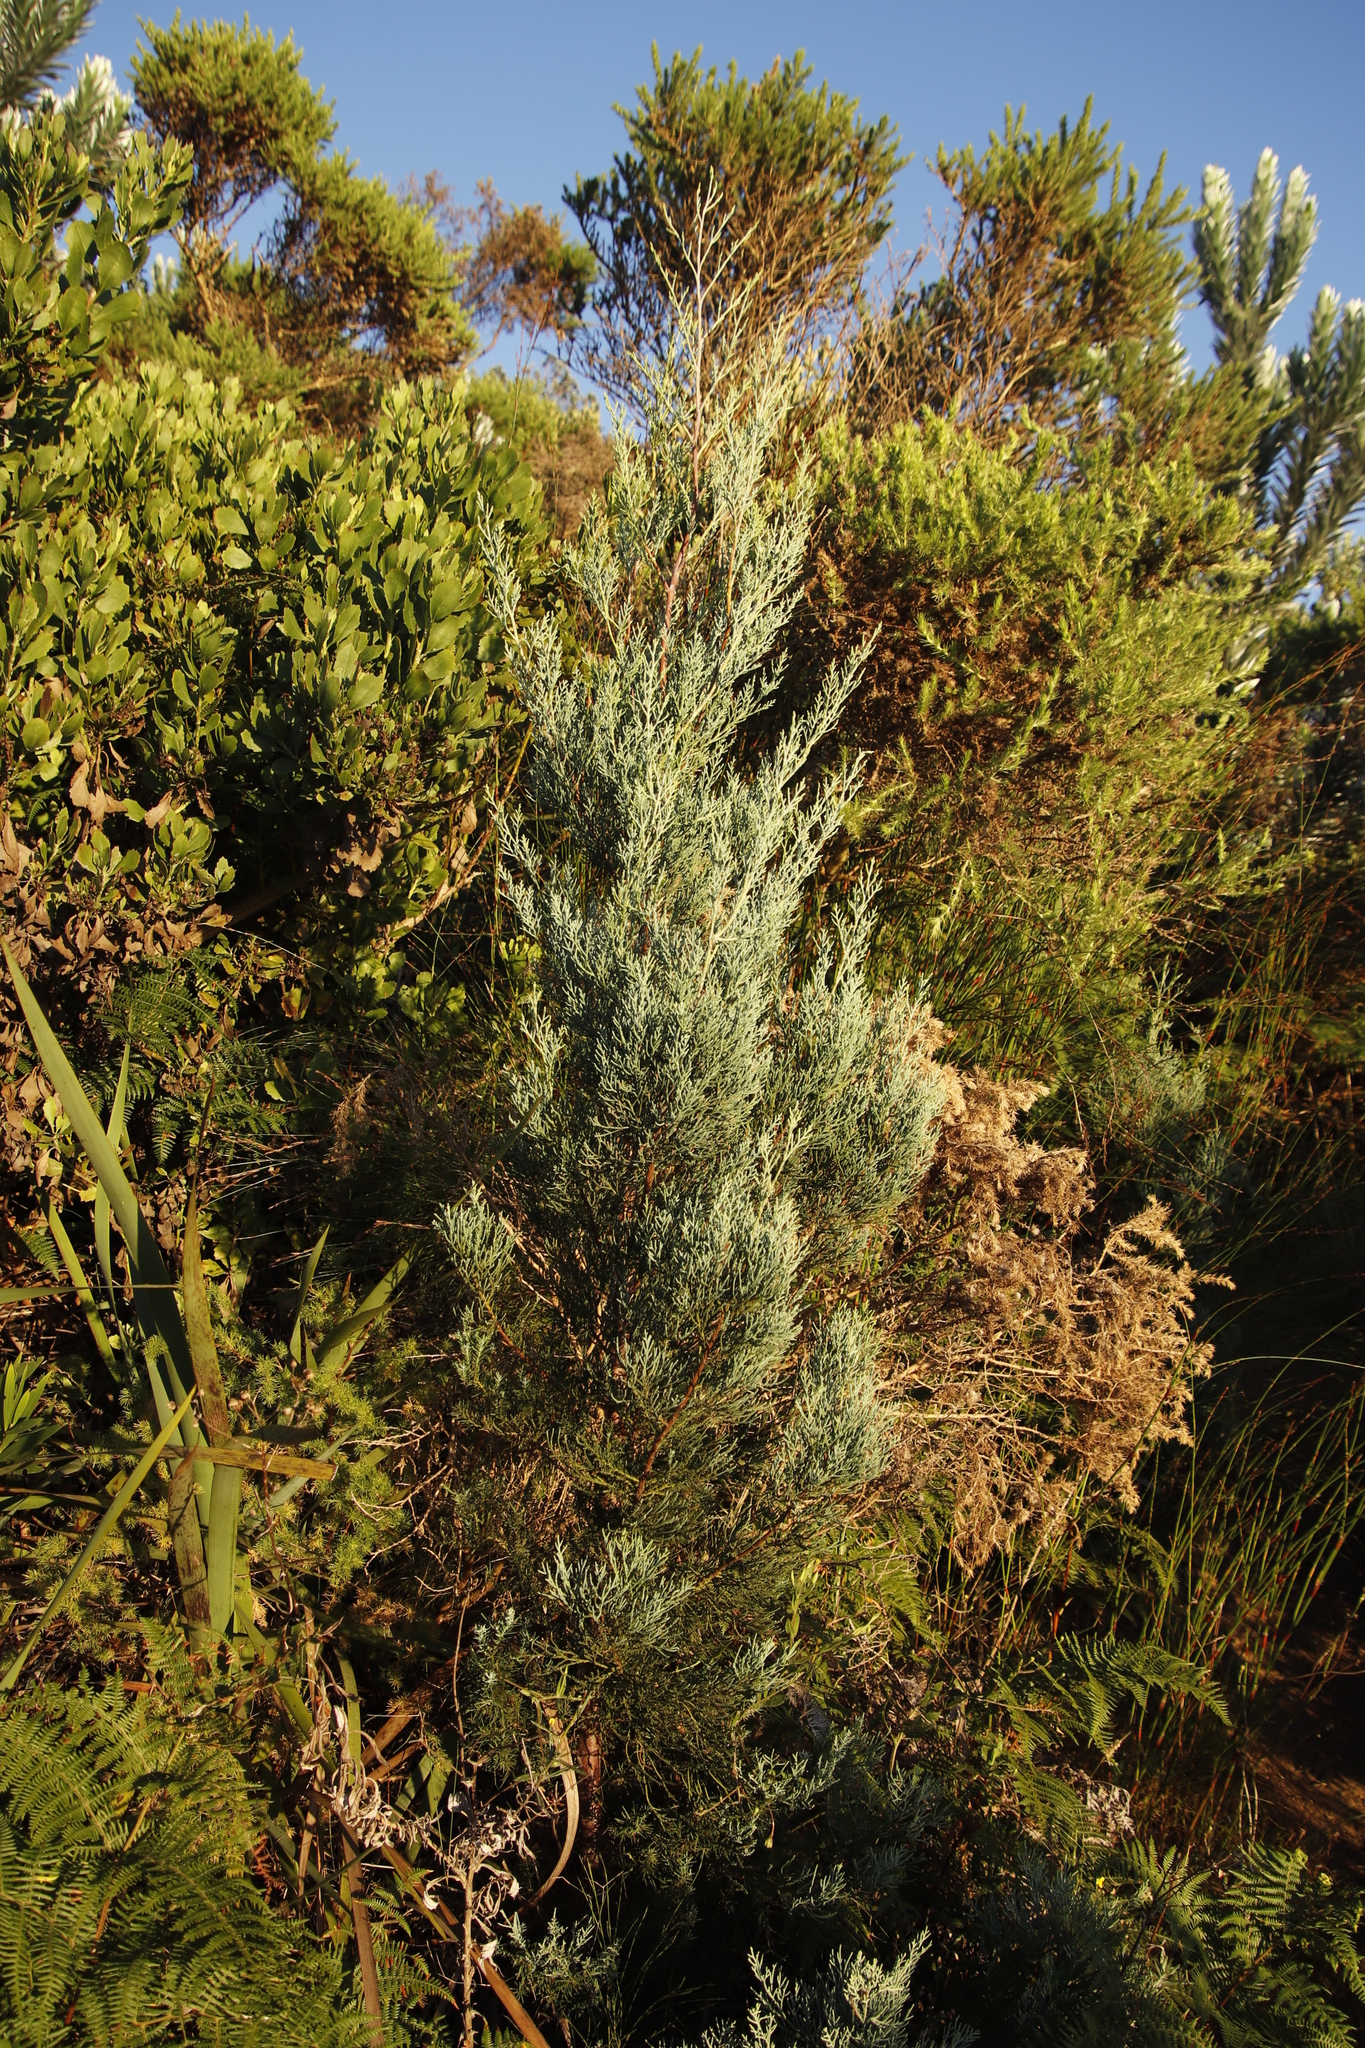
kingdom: Plantae
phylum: Tracheophyta
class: Pinopsida
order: Pinales
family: Cupressaceae
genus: Widdringtonia
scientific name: Widdringtonia nodiflora
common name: Cape cypress
